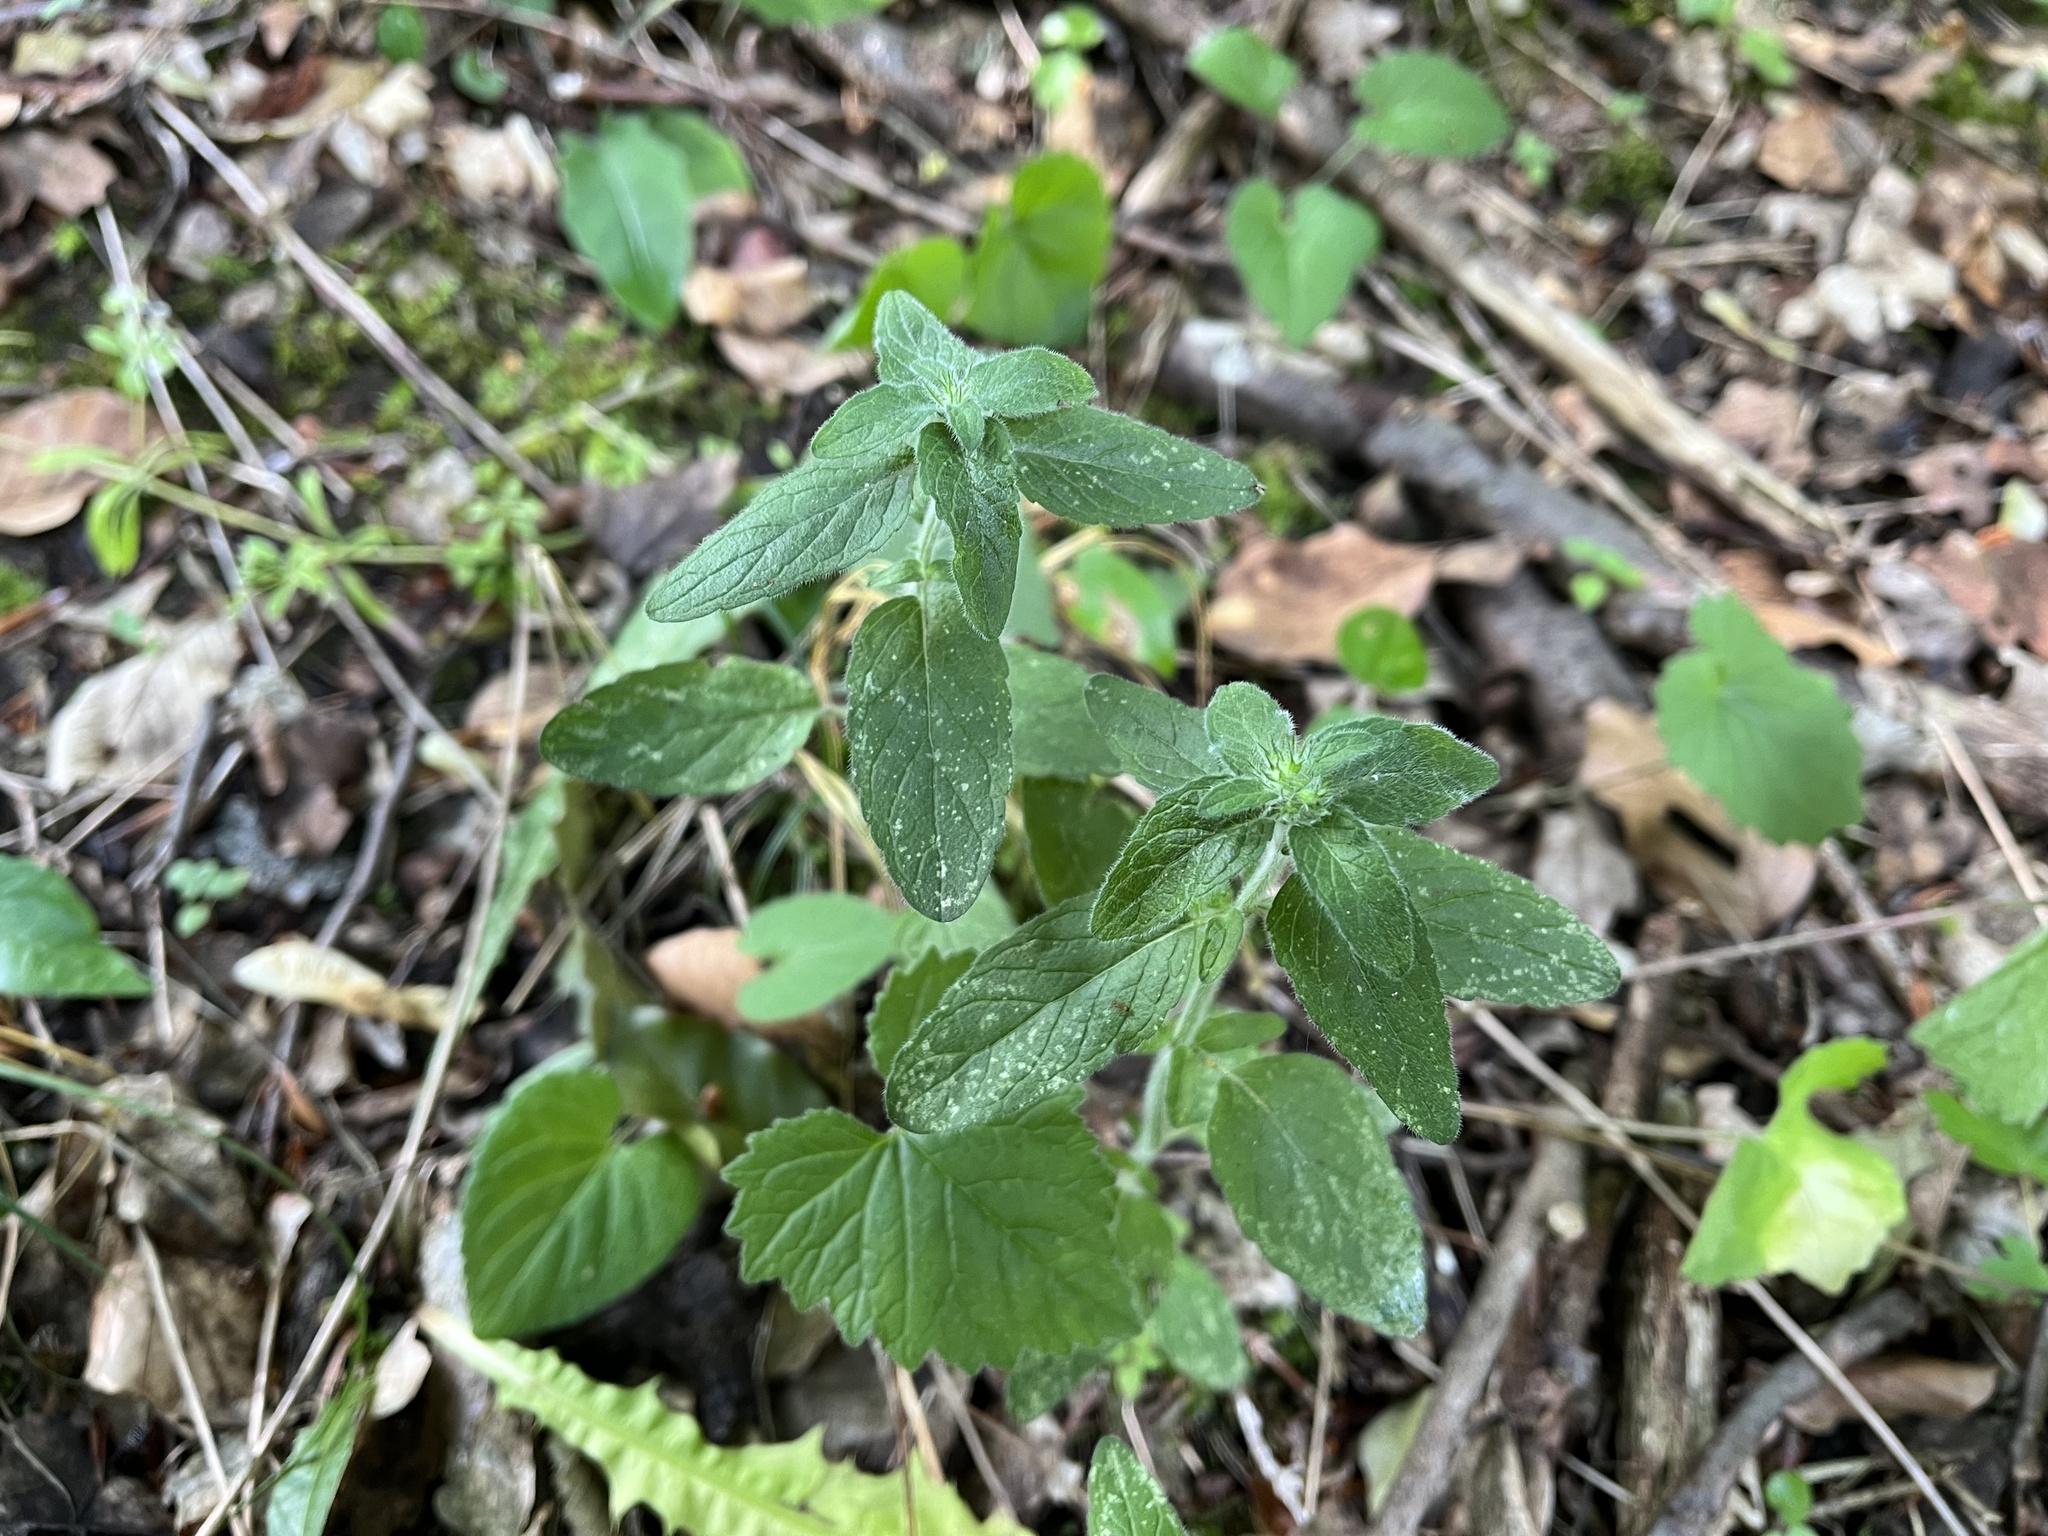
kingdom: Plantae
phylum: Tracheophyta
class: Magnoliopsida
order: Lamiales
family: Lamiaceae
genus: Clinopodium
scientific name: Clinopodium vulgare
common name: Wild basil
